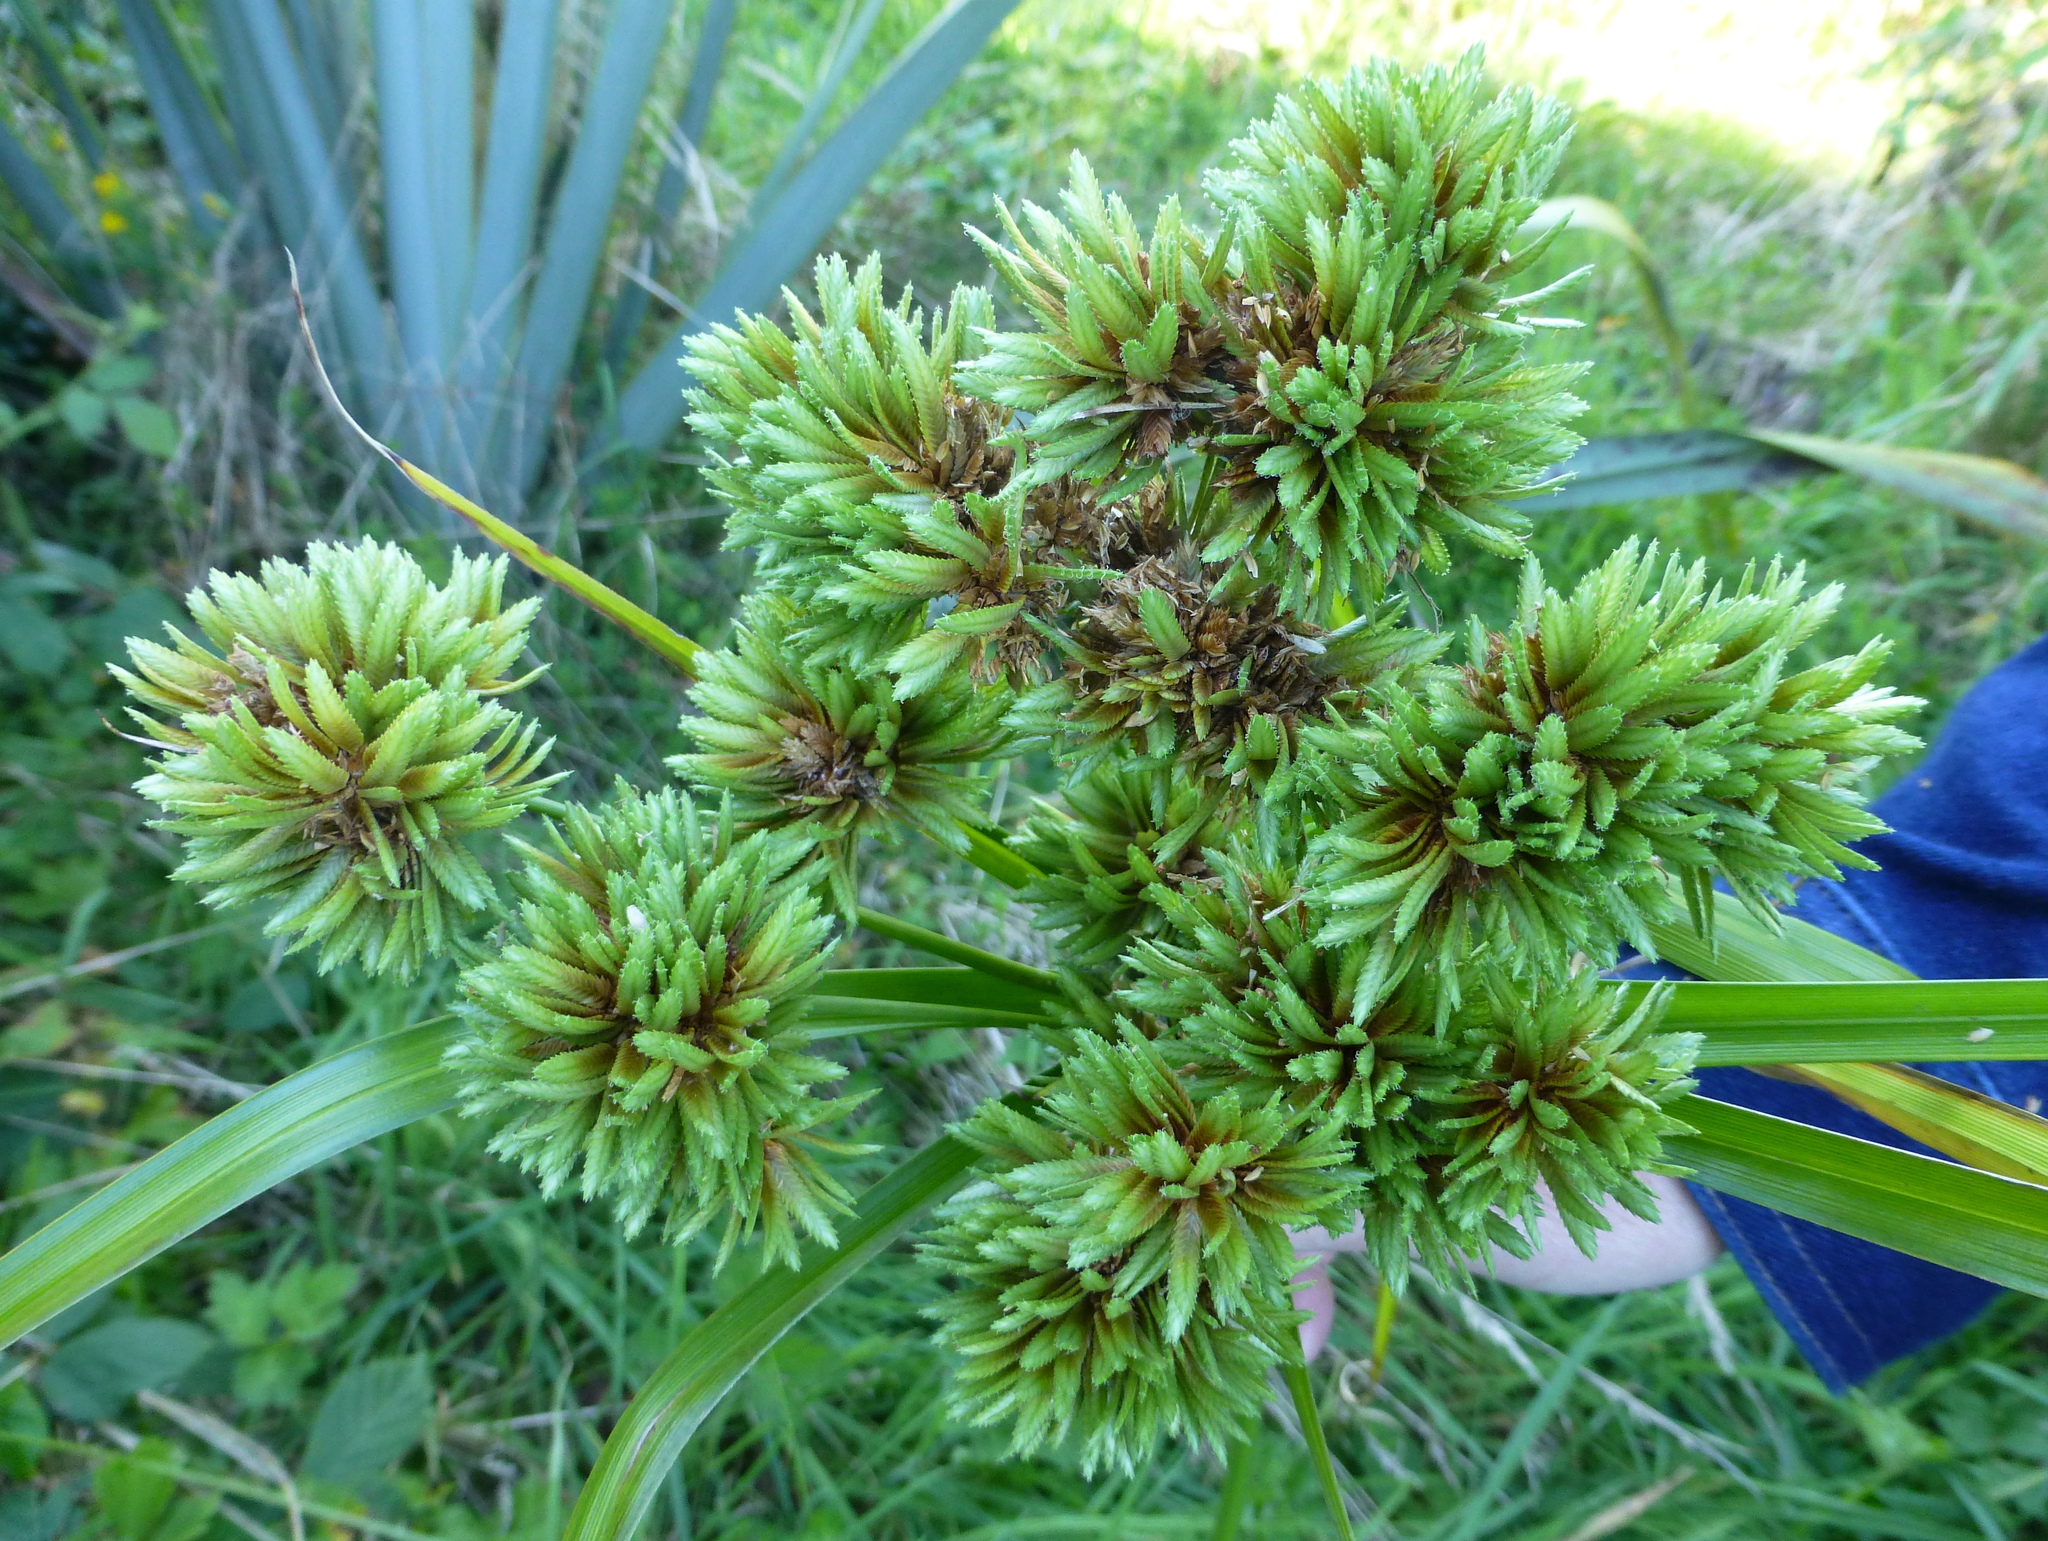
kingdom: Plantae
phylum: Tracheophyta
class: Liliopsida
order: Poales
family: Cyperaceae
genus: Cyperus
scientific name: Cyperus eragrostis
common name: Tall flatsedge
